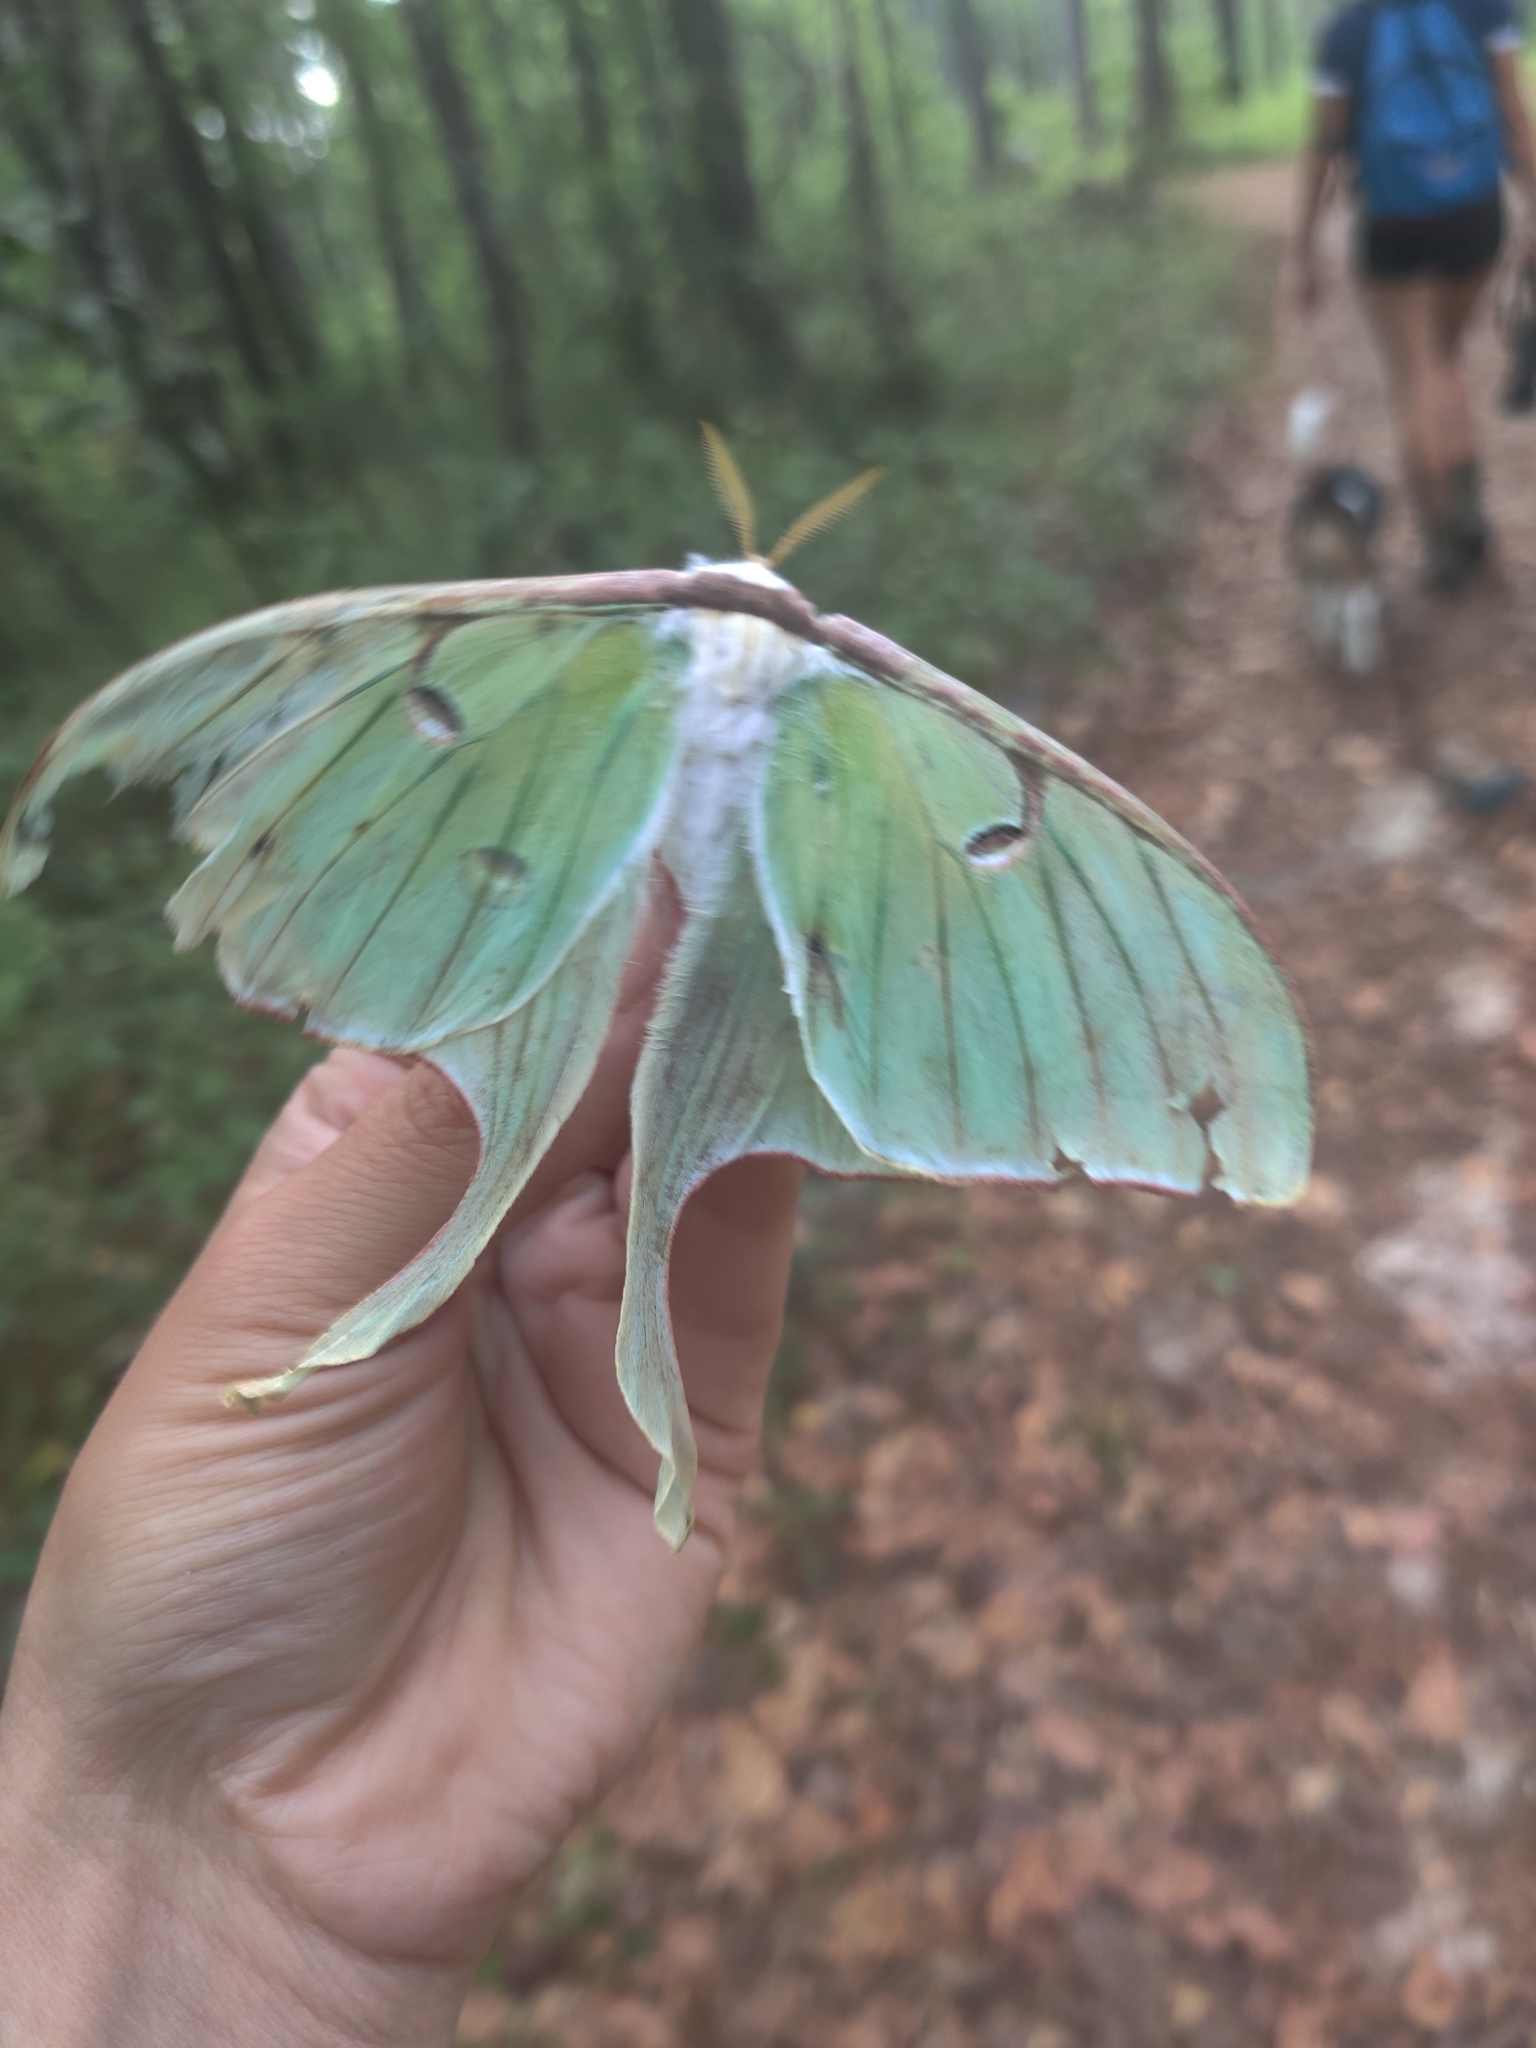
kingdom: Animalia
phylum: Arthropoda
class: Insecta
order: Lepidoptera
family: Saturniidae
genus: Actias
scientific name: Actias luna
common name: Luna moth
